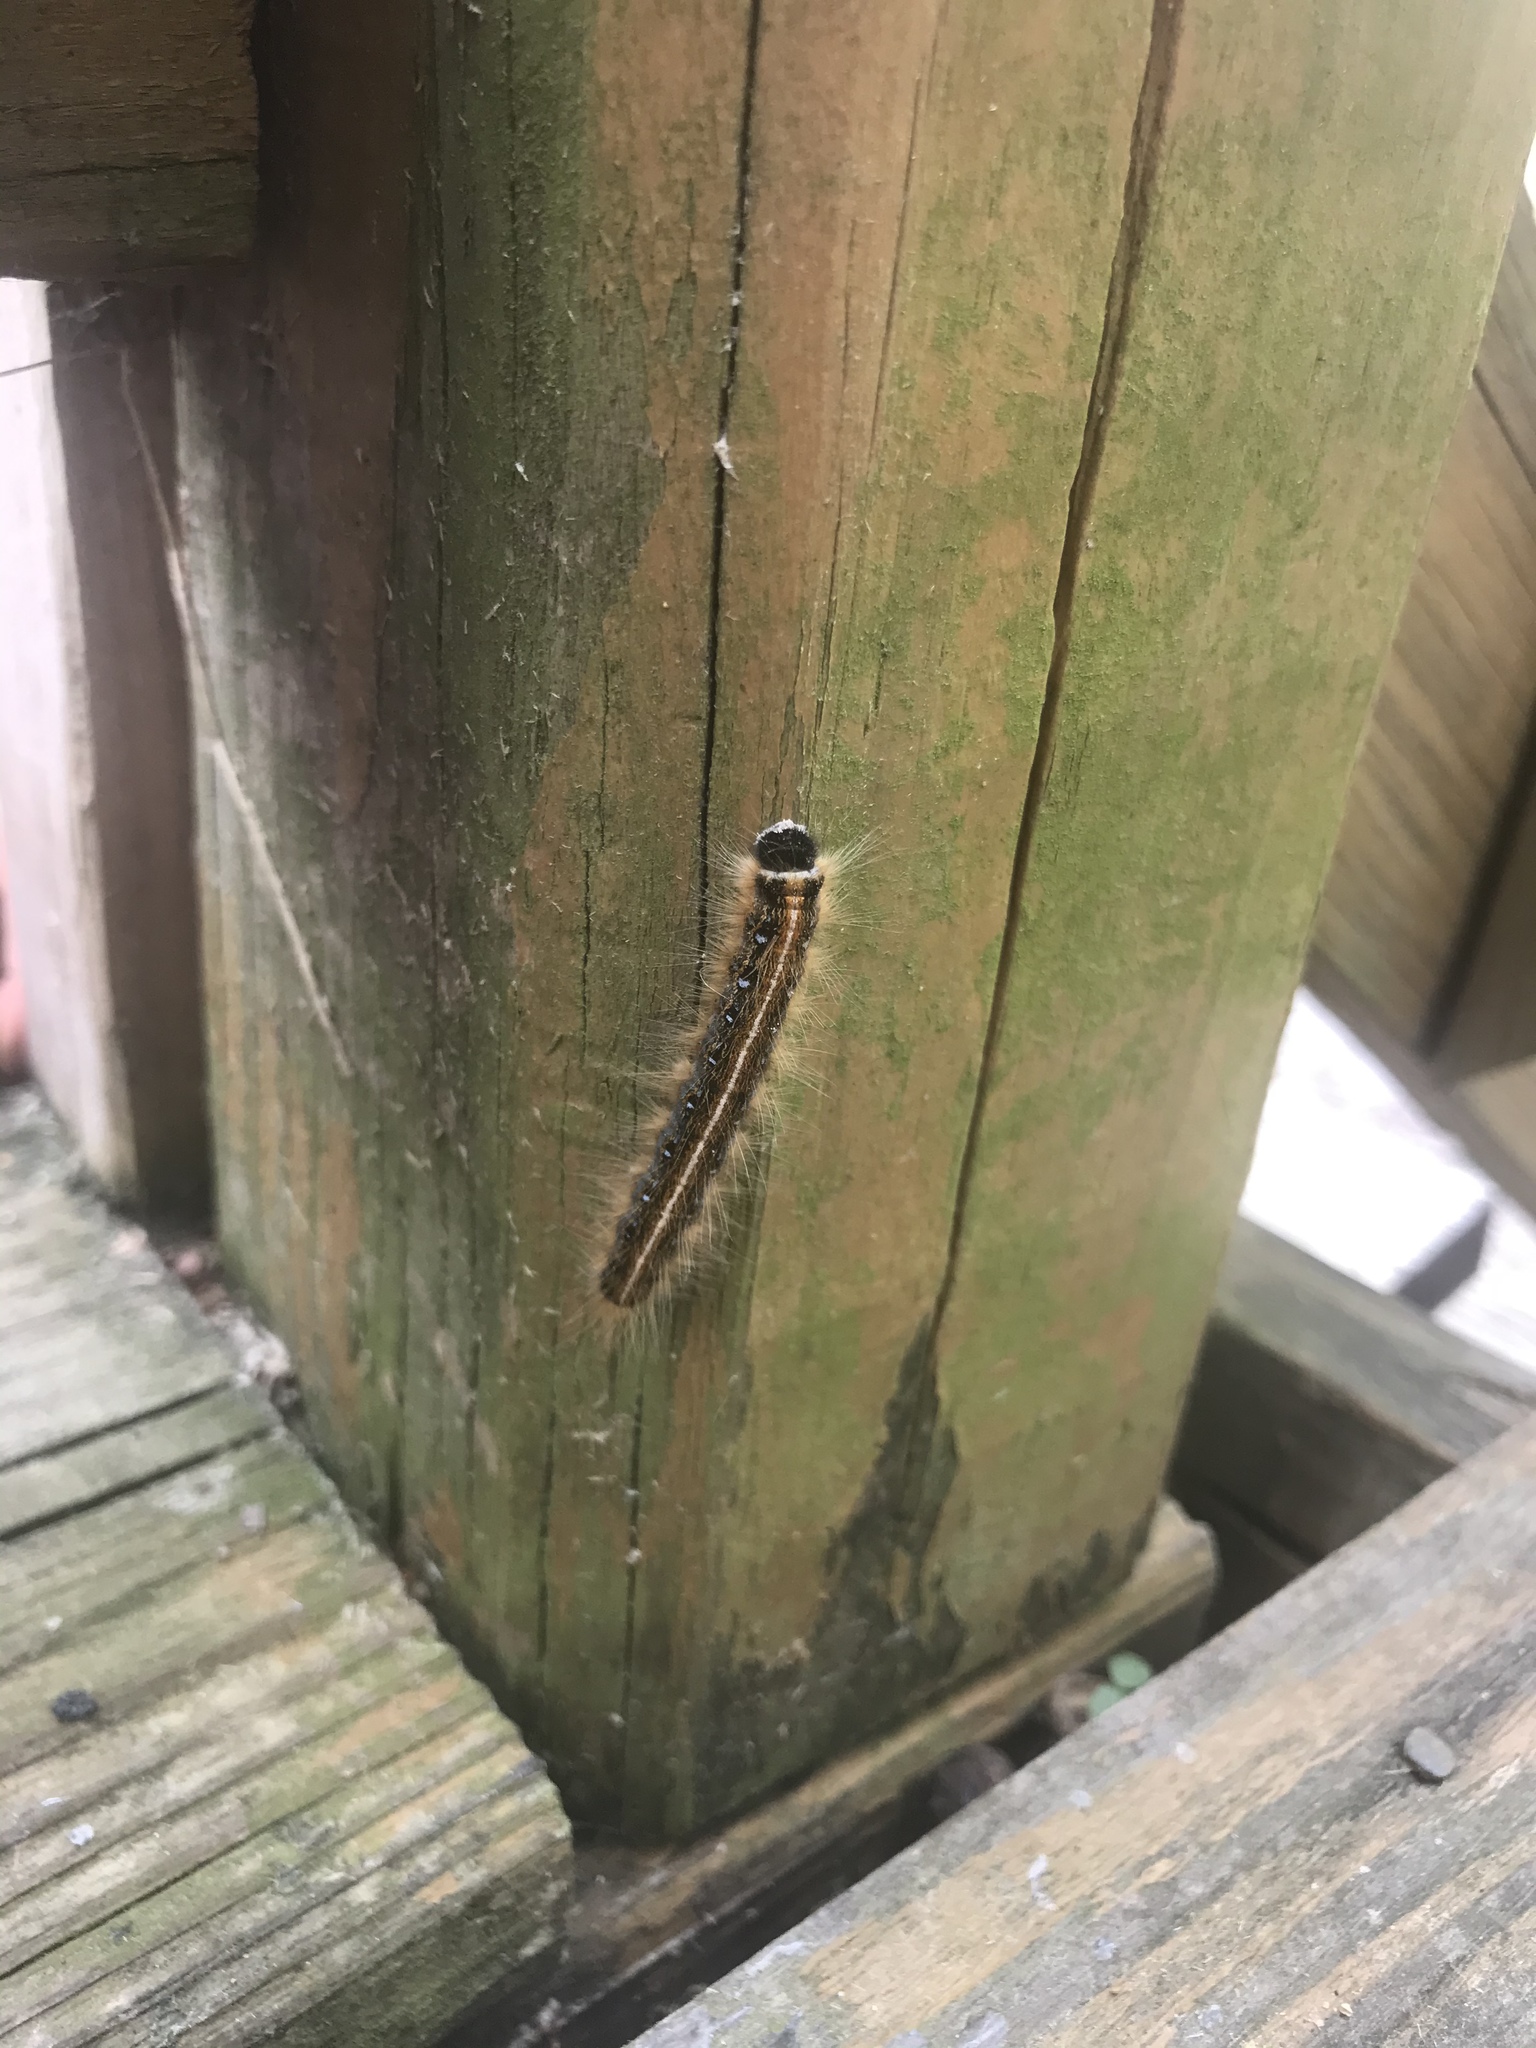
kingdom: Animalia
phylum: Arthropoda
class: Insecta
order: Lepidoptera
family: Lasiocampidae
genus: Malacosoma
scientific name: Malacosoma americana
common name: Eastern tent caterpillar moth
